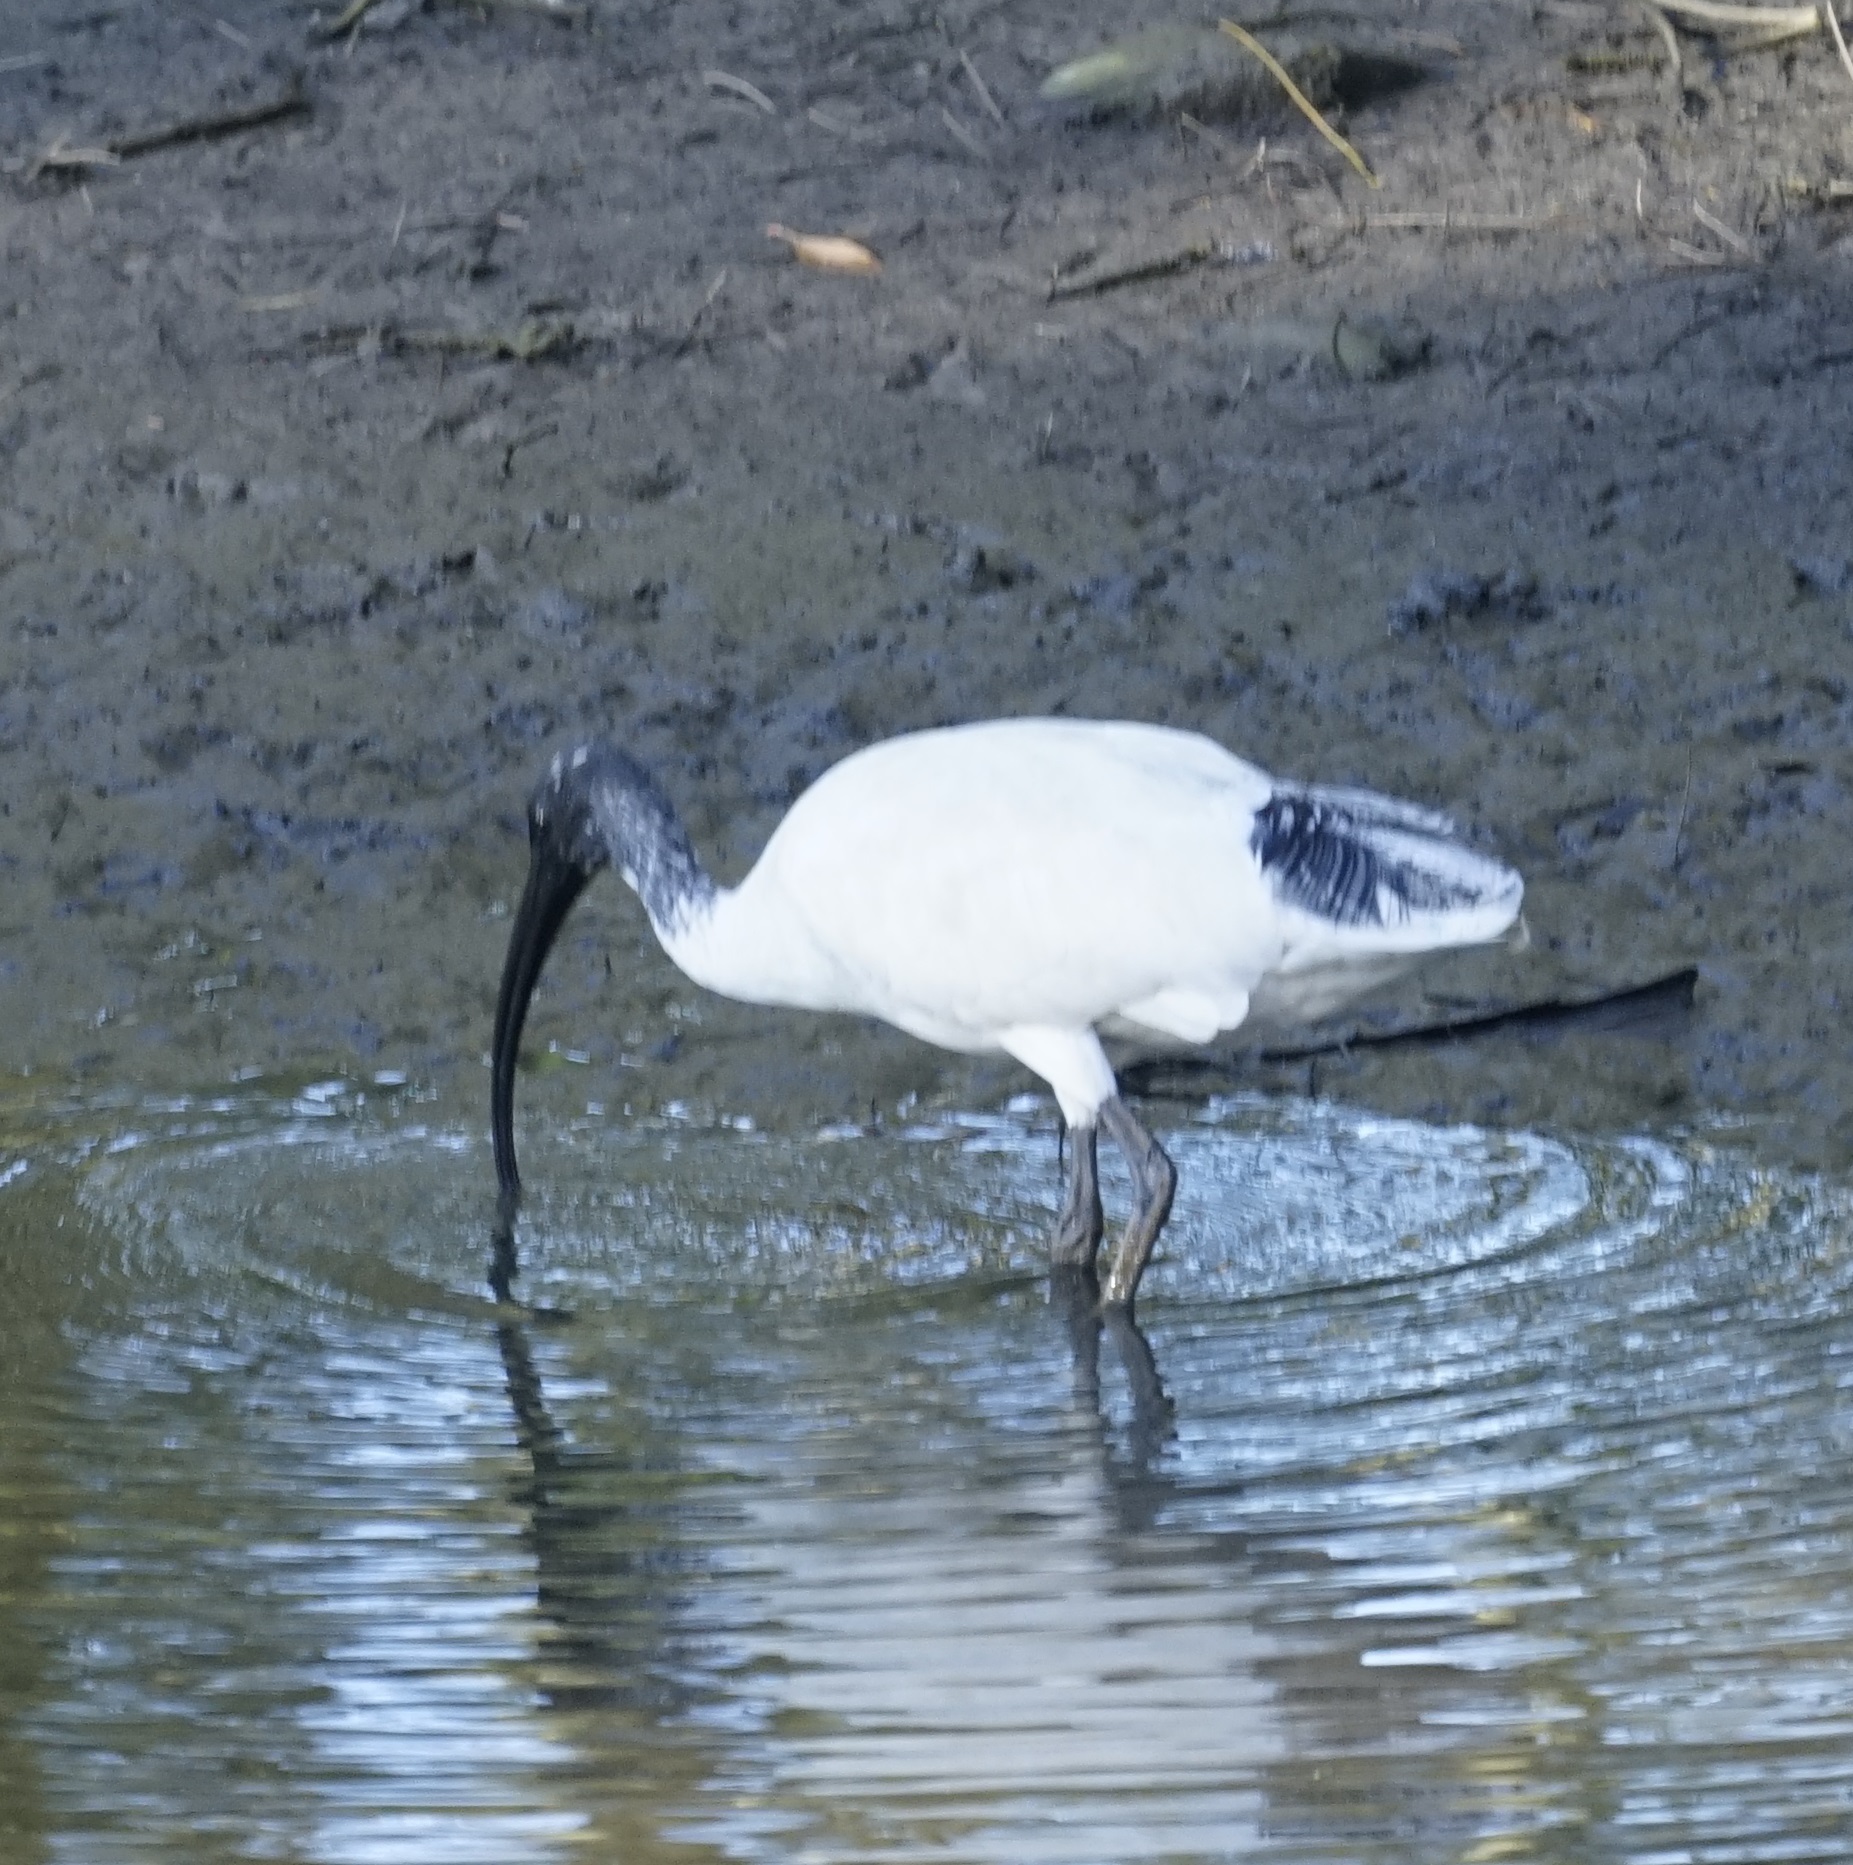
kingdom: Animalia
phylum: Chordata
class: Aves
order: Pelecaniformes
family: Threskiornithidae
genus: Threskiornis
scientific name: Threskiornis molucca
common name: Australian white ibis
